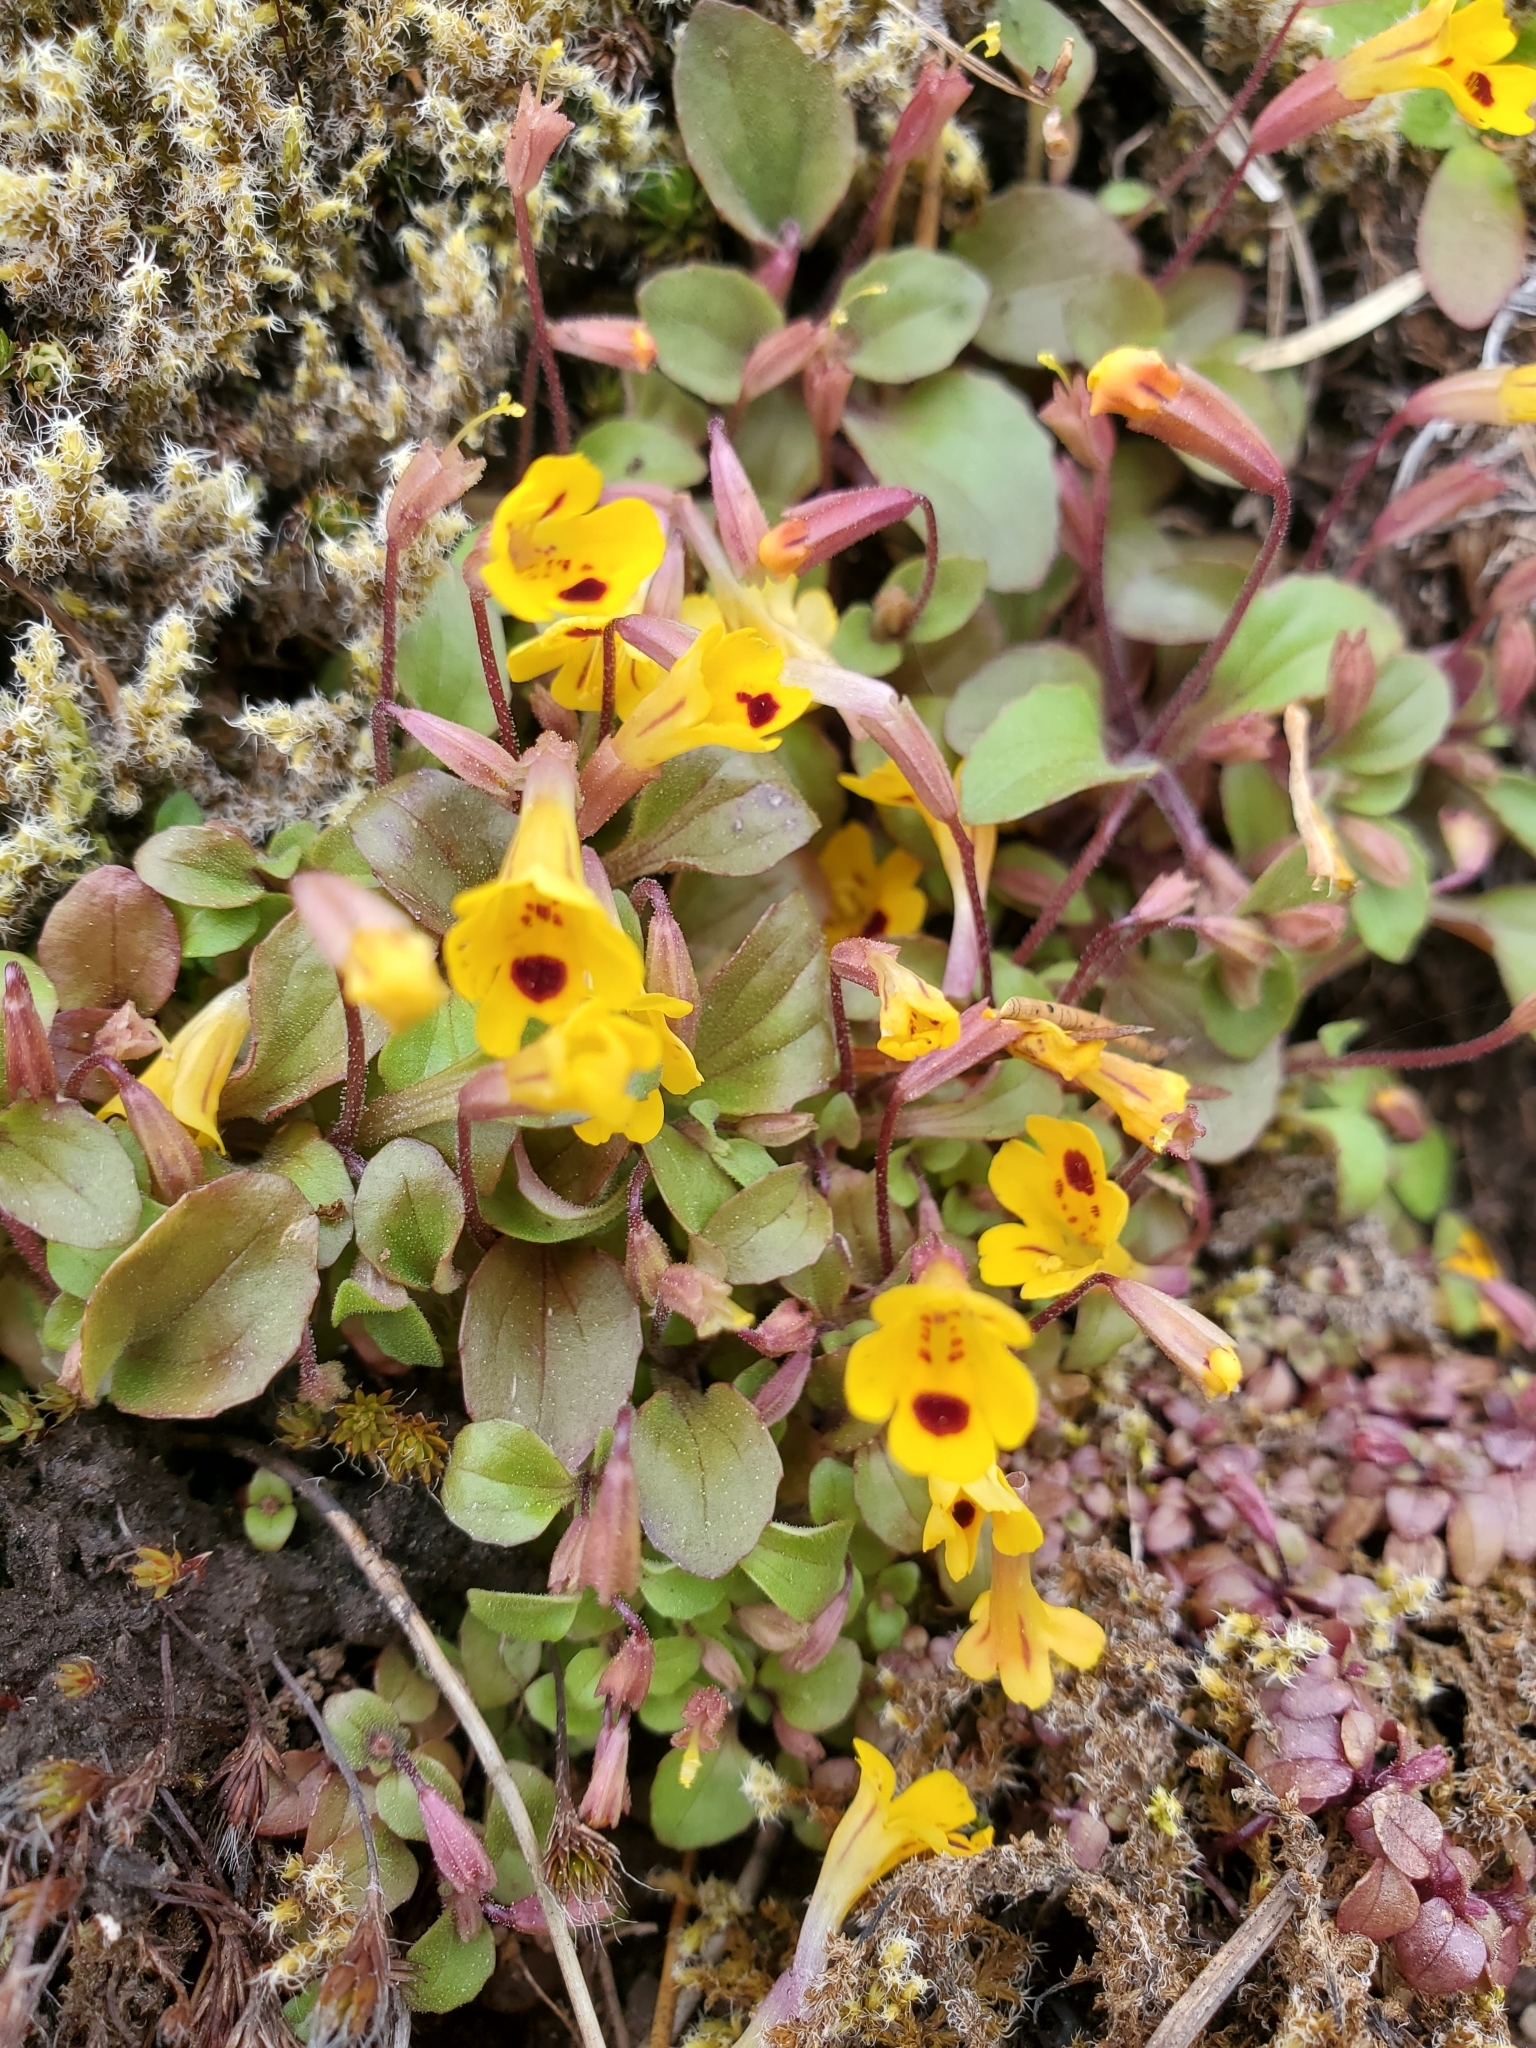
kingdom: Plantae
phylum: Tracheophyta
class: Magnoliopsida
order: Lamiales
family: Phrymaceae
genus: Erythranthe
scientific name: Erythranthe alsinoides
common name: Chickweed monkeyflower
